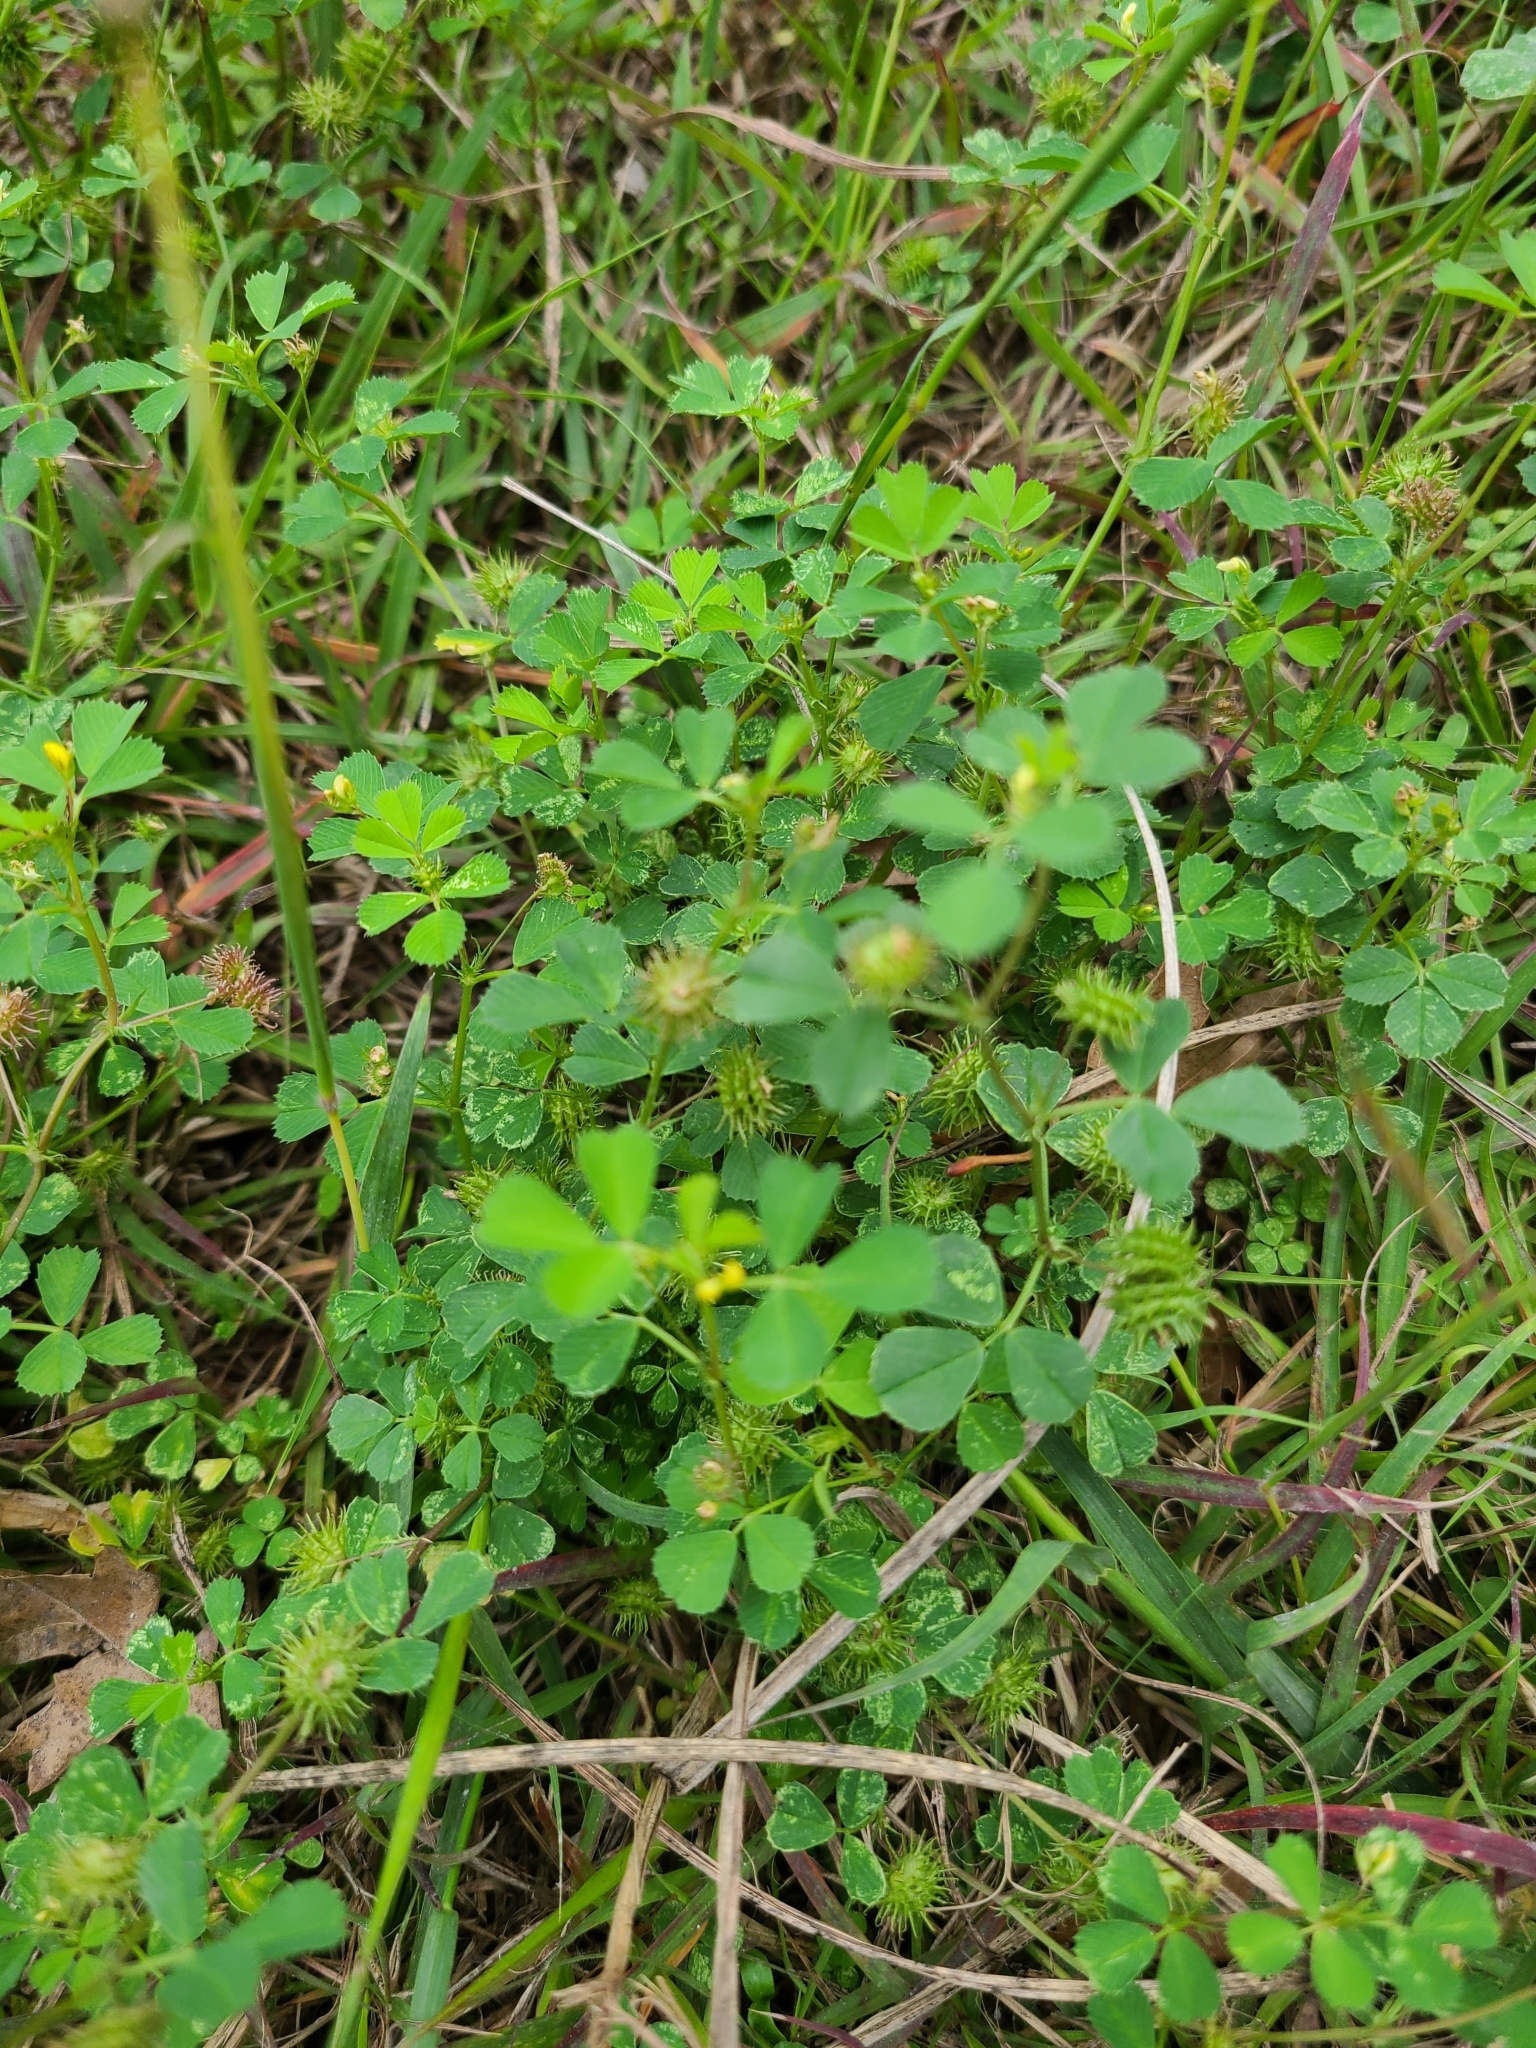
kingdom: Plantae
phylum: Tracheophyta
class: Magnoliopsida
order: Fabales
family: Fabaceae
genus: Medicago
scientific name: Medicago polymorpha
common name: Burclover
